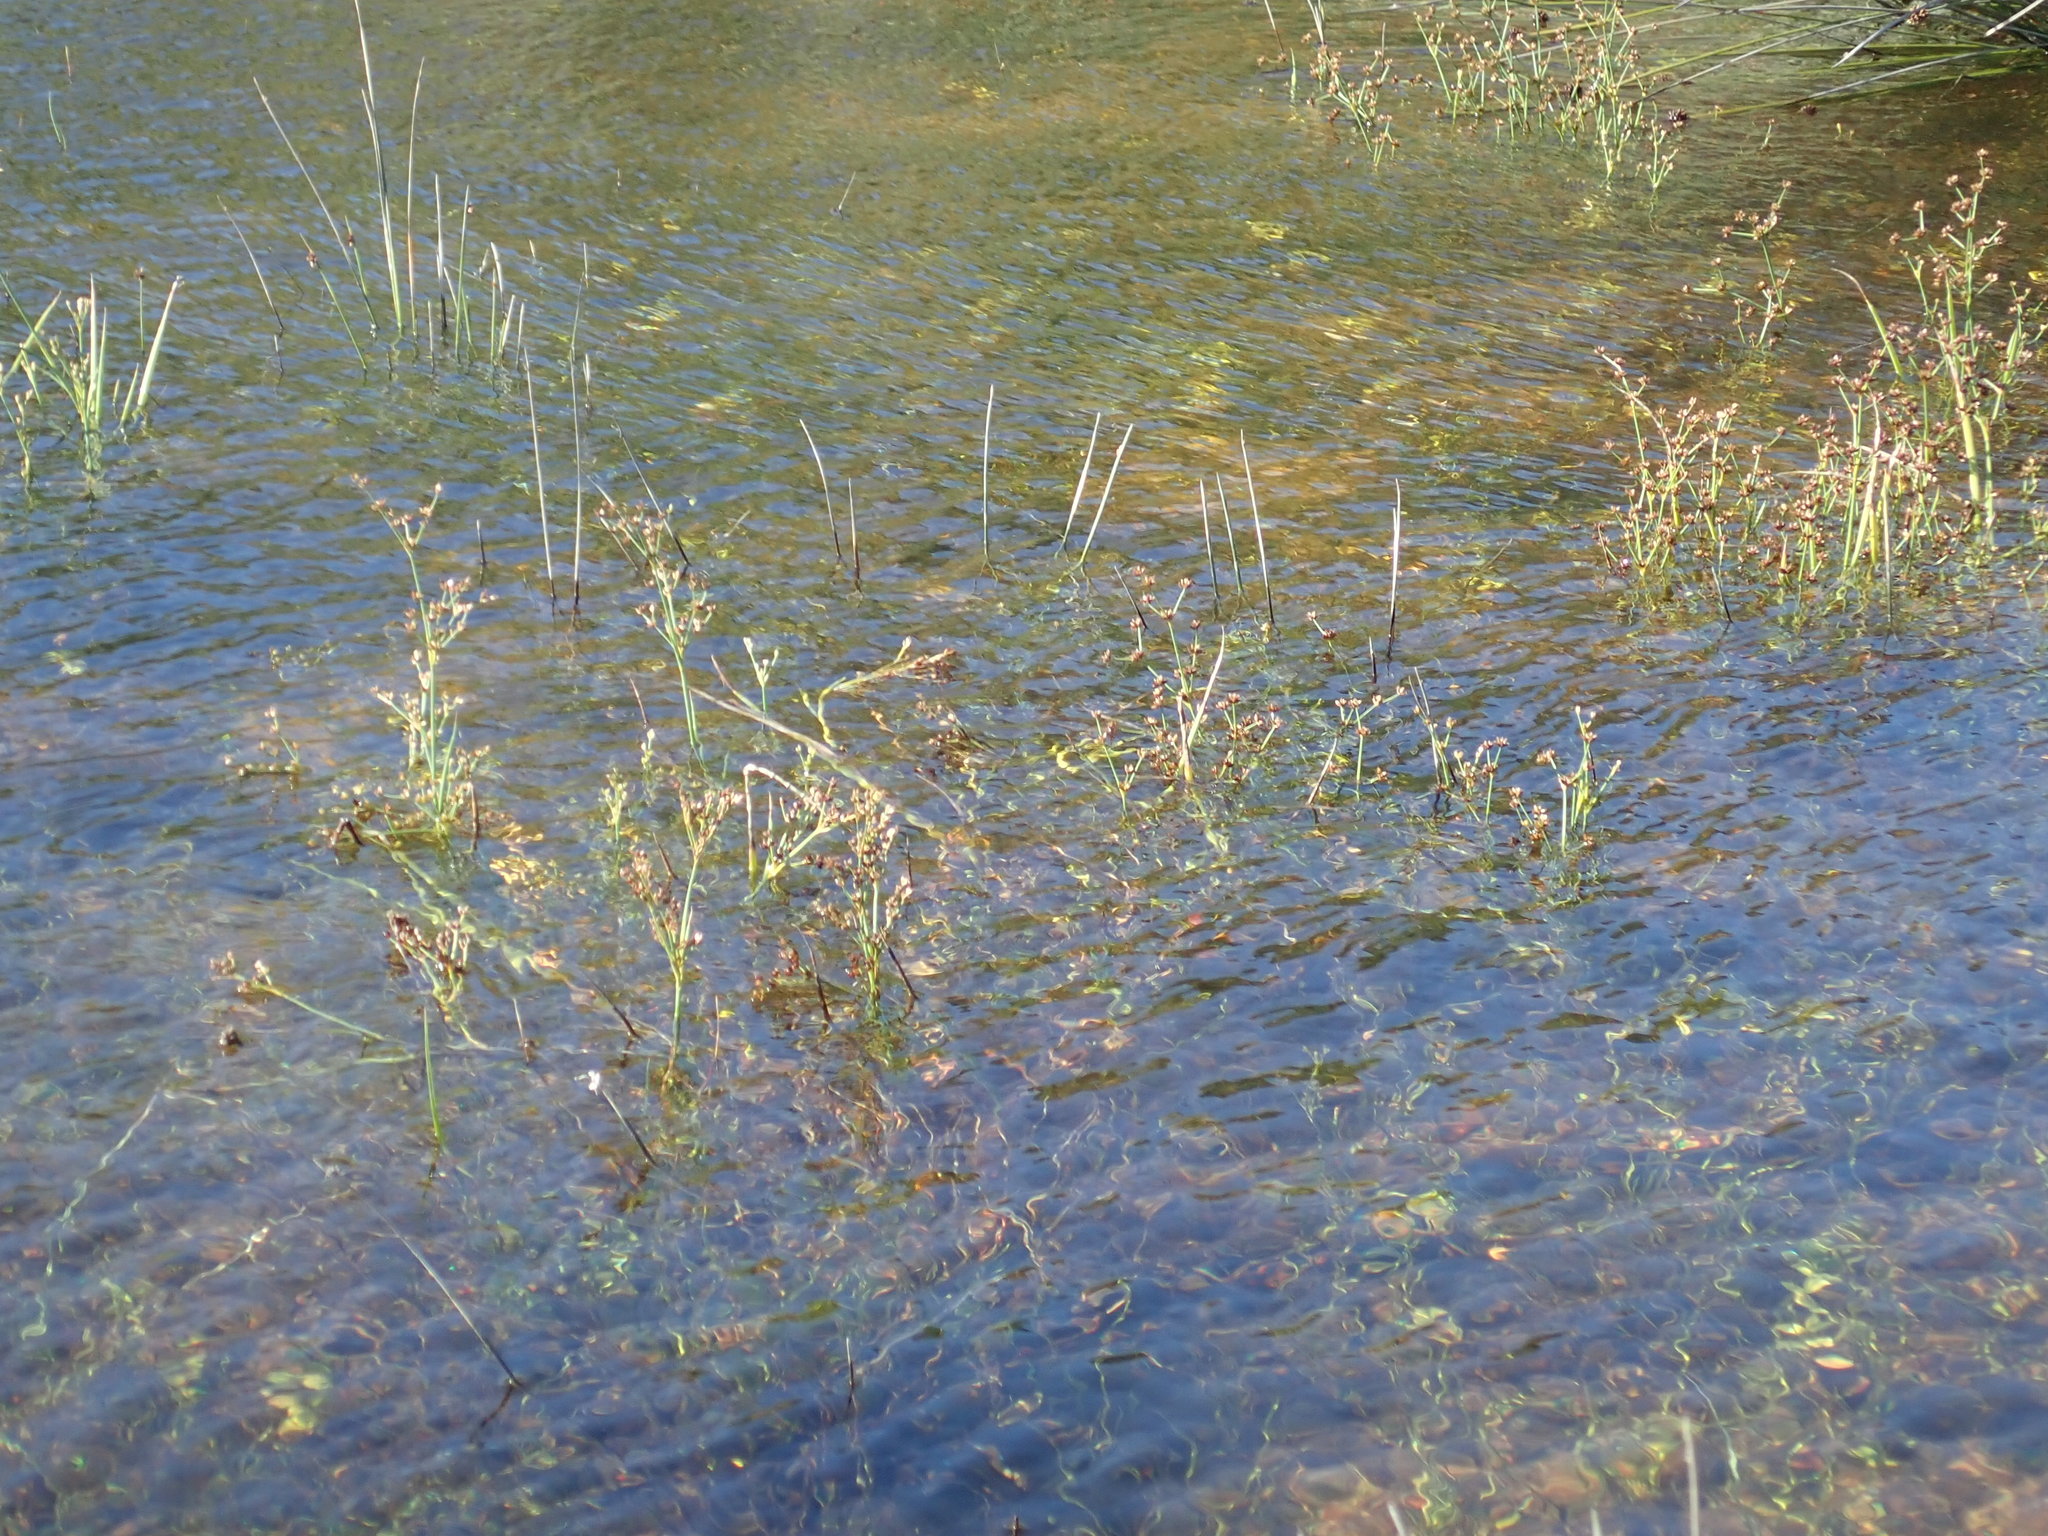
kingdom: Plantae
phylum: Tracheophyta
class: Liliopsida
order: Poales
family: Juncaceae
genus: Juncus
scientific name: Juncus articulatus
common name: Jointed rush
